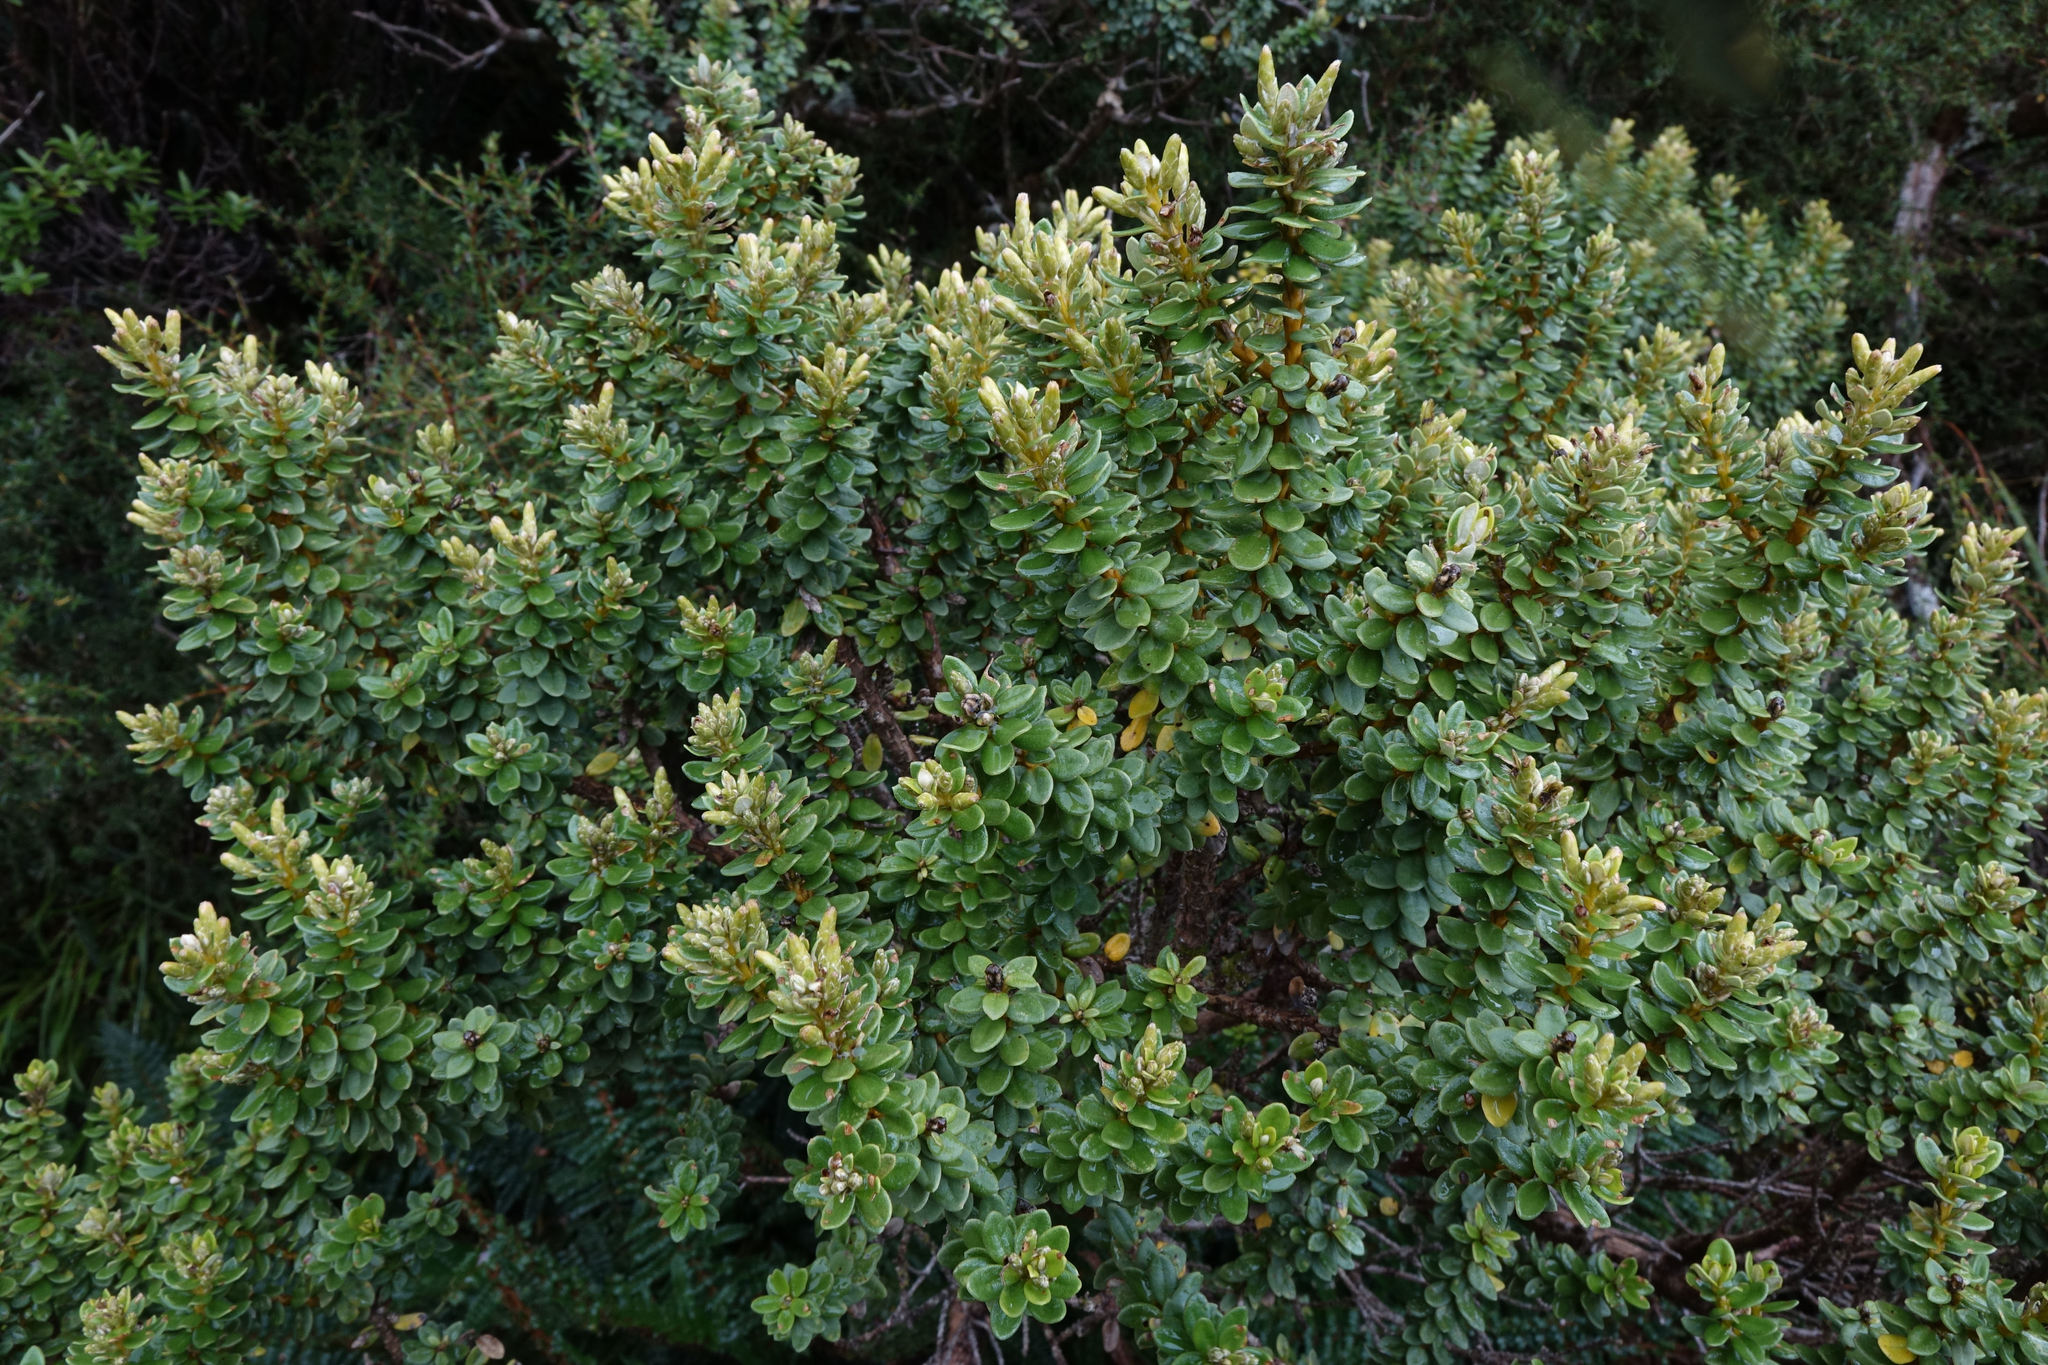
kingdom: Plantae
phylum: Tracheophyta
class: Magnoliopsida
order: Asterales
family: Asteraceae
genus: Olearia
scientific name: Olearia nummularifolia
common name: Sticky daisybush
